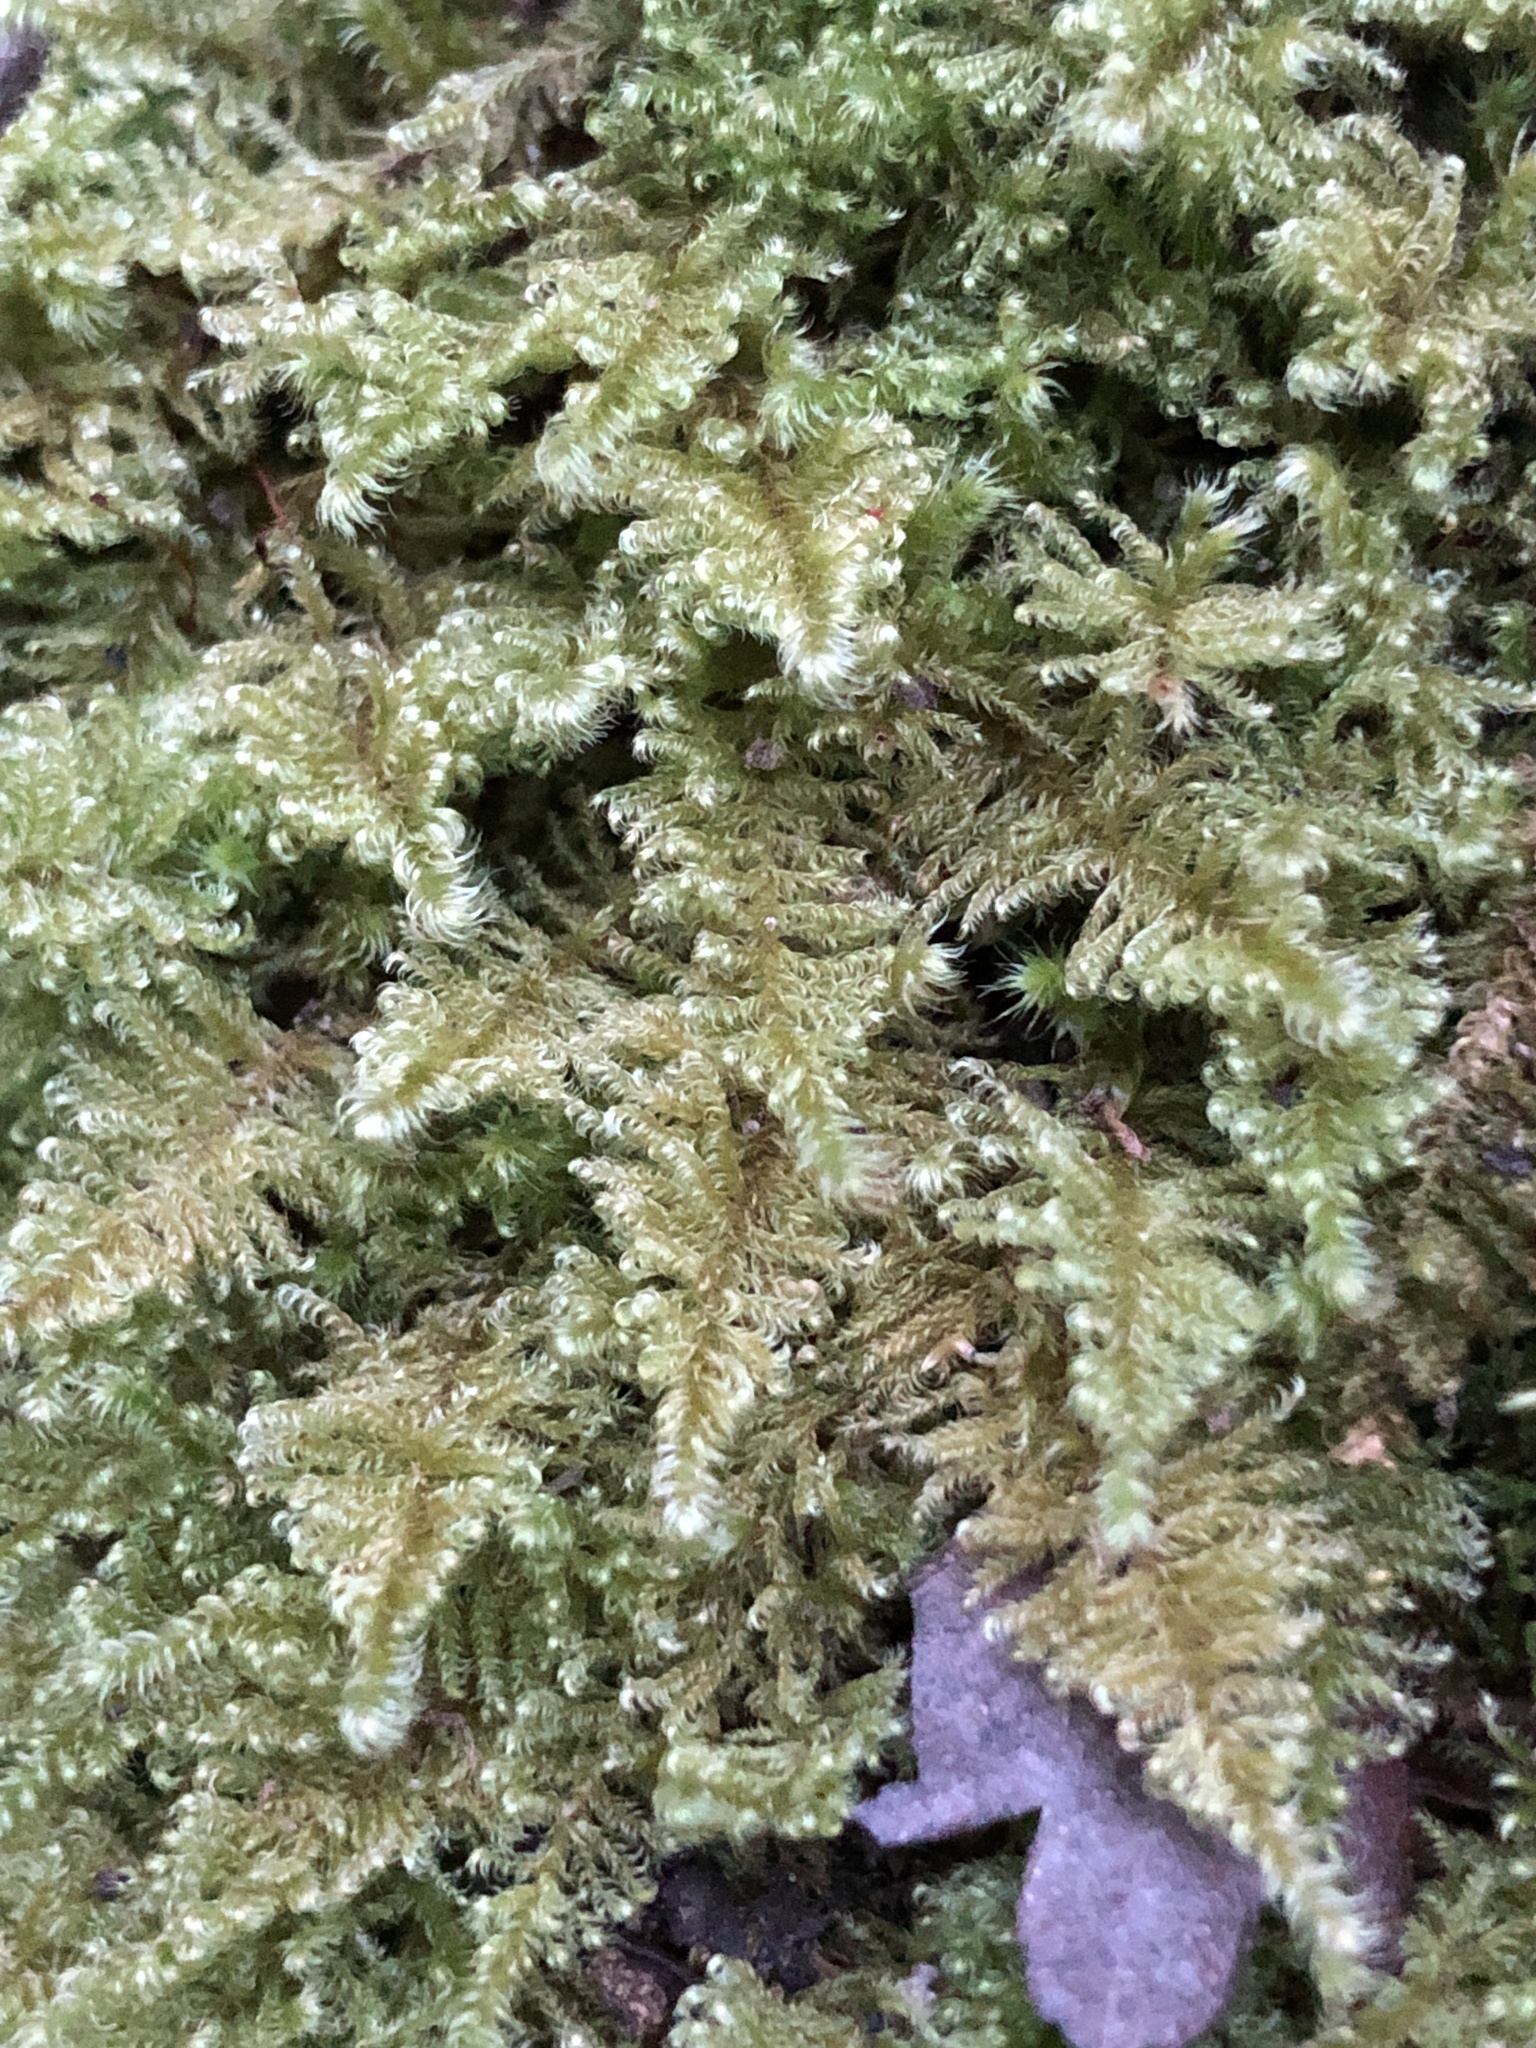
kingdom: Plantae
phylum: Bryophyta
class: Bryopsida
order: Hypnales
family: Myuriaceae
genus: Ctenidium
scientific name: Ctenidium molluscum
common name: Chalk comb-moss
